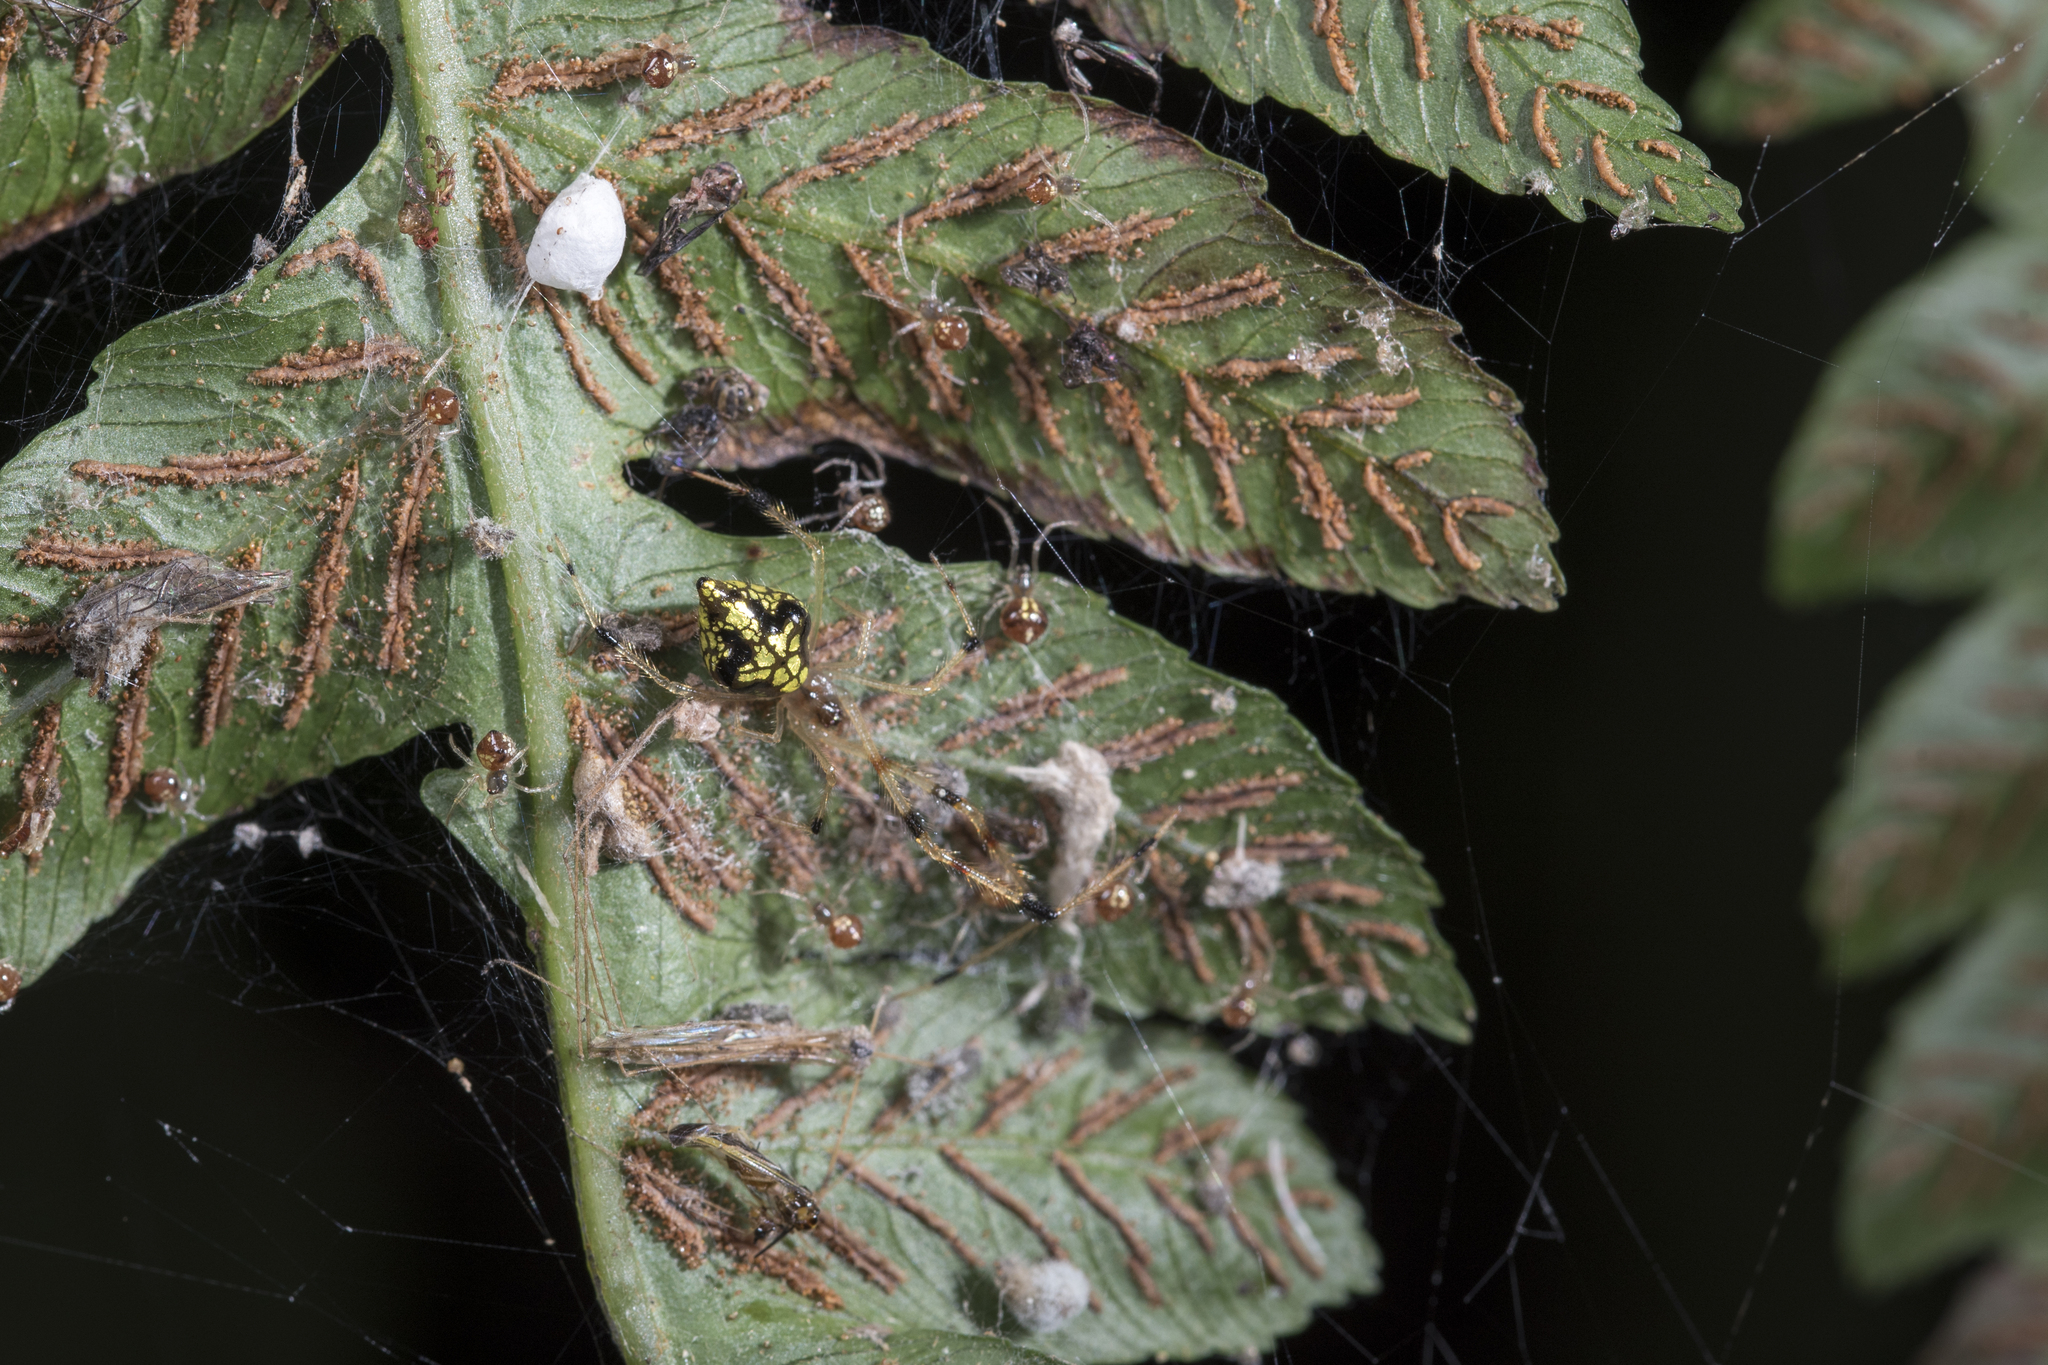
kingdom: Animalia
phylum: Arthropoda
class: Arachnida
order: Araneae
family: Theridiidae
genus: Chrysso
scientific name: Chrysso scintillans
